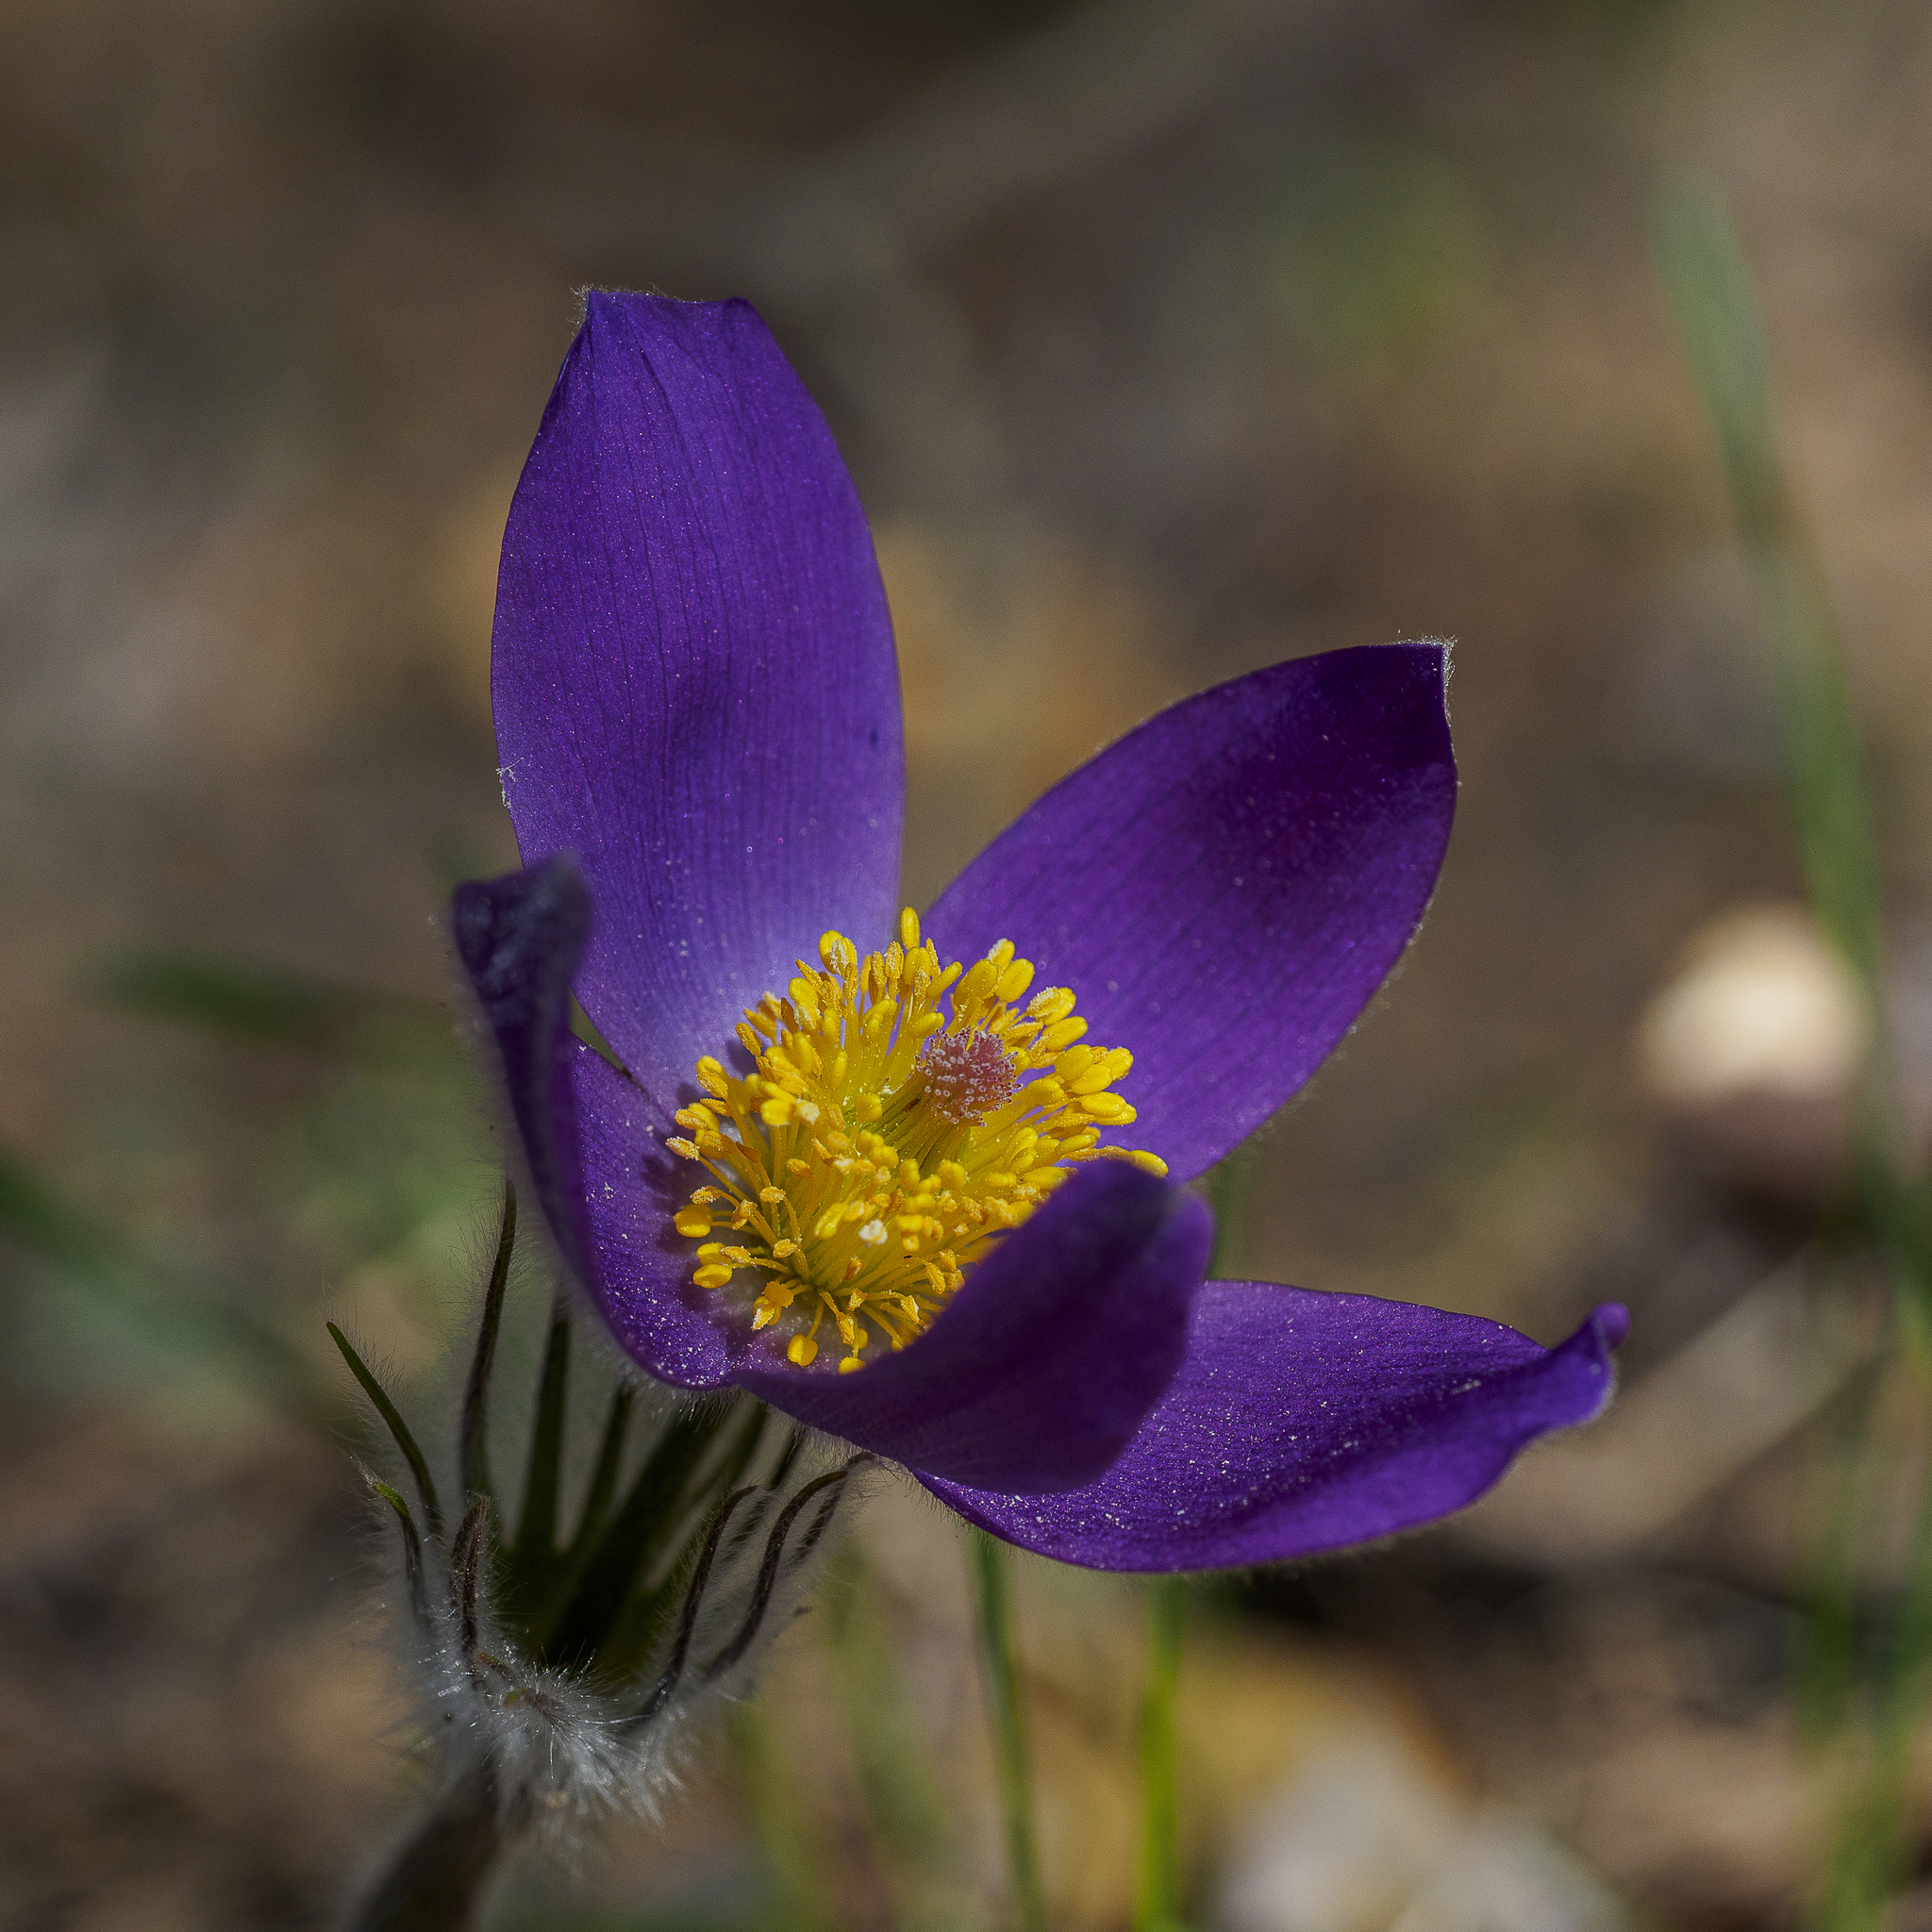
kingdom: Plantae
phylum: Tracheophyta
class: Magnoliopsida
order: Ranunculales
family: Ranunculaceae
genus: Pulsatilla
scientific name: Pulsatilla patens
